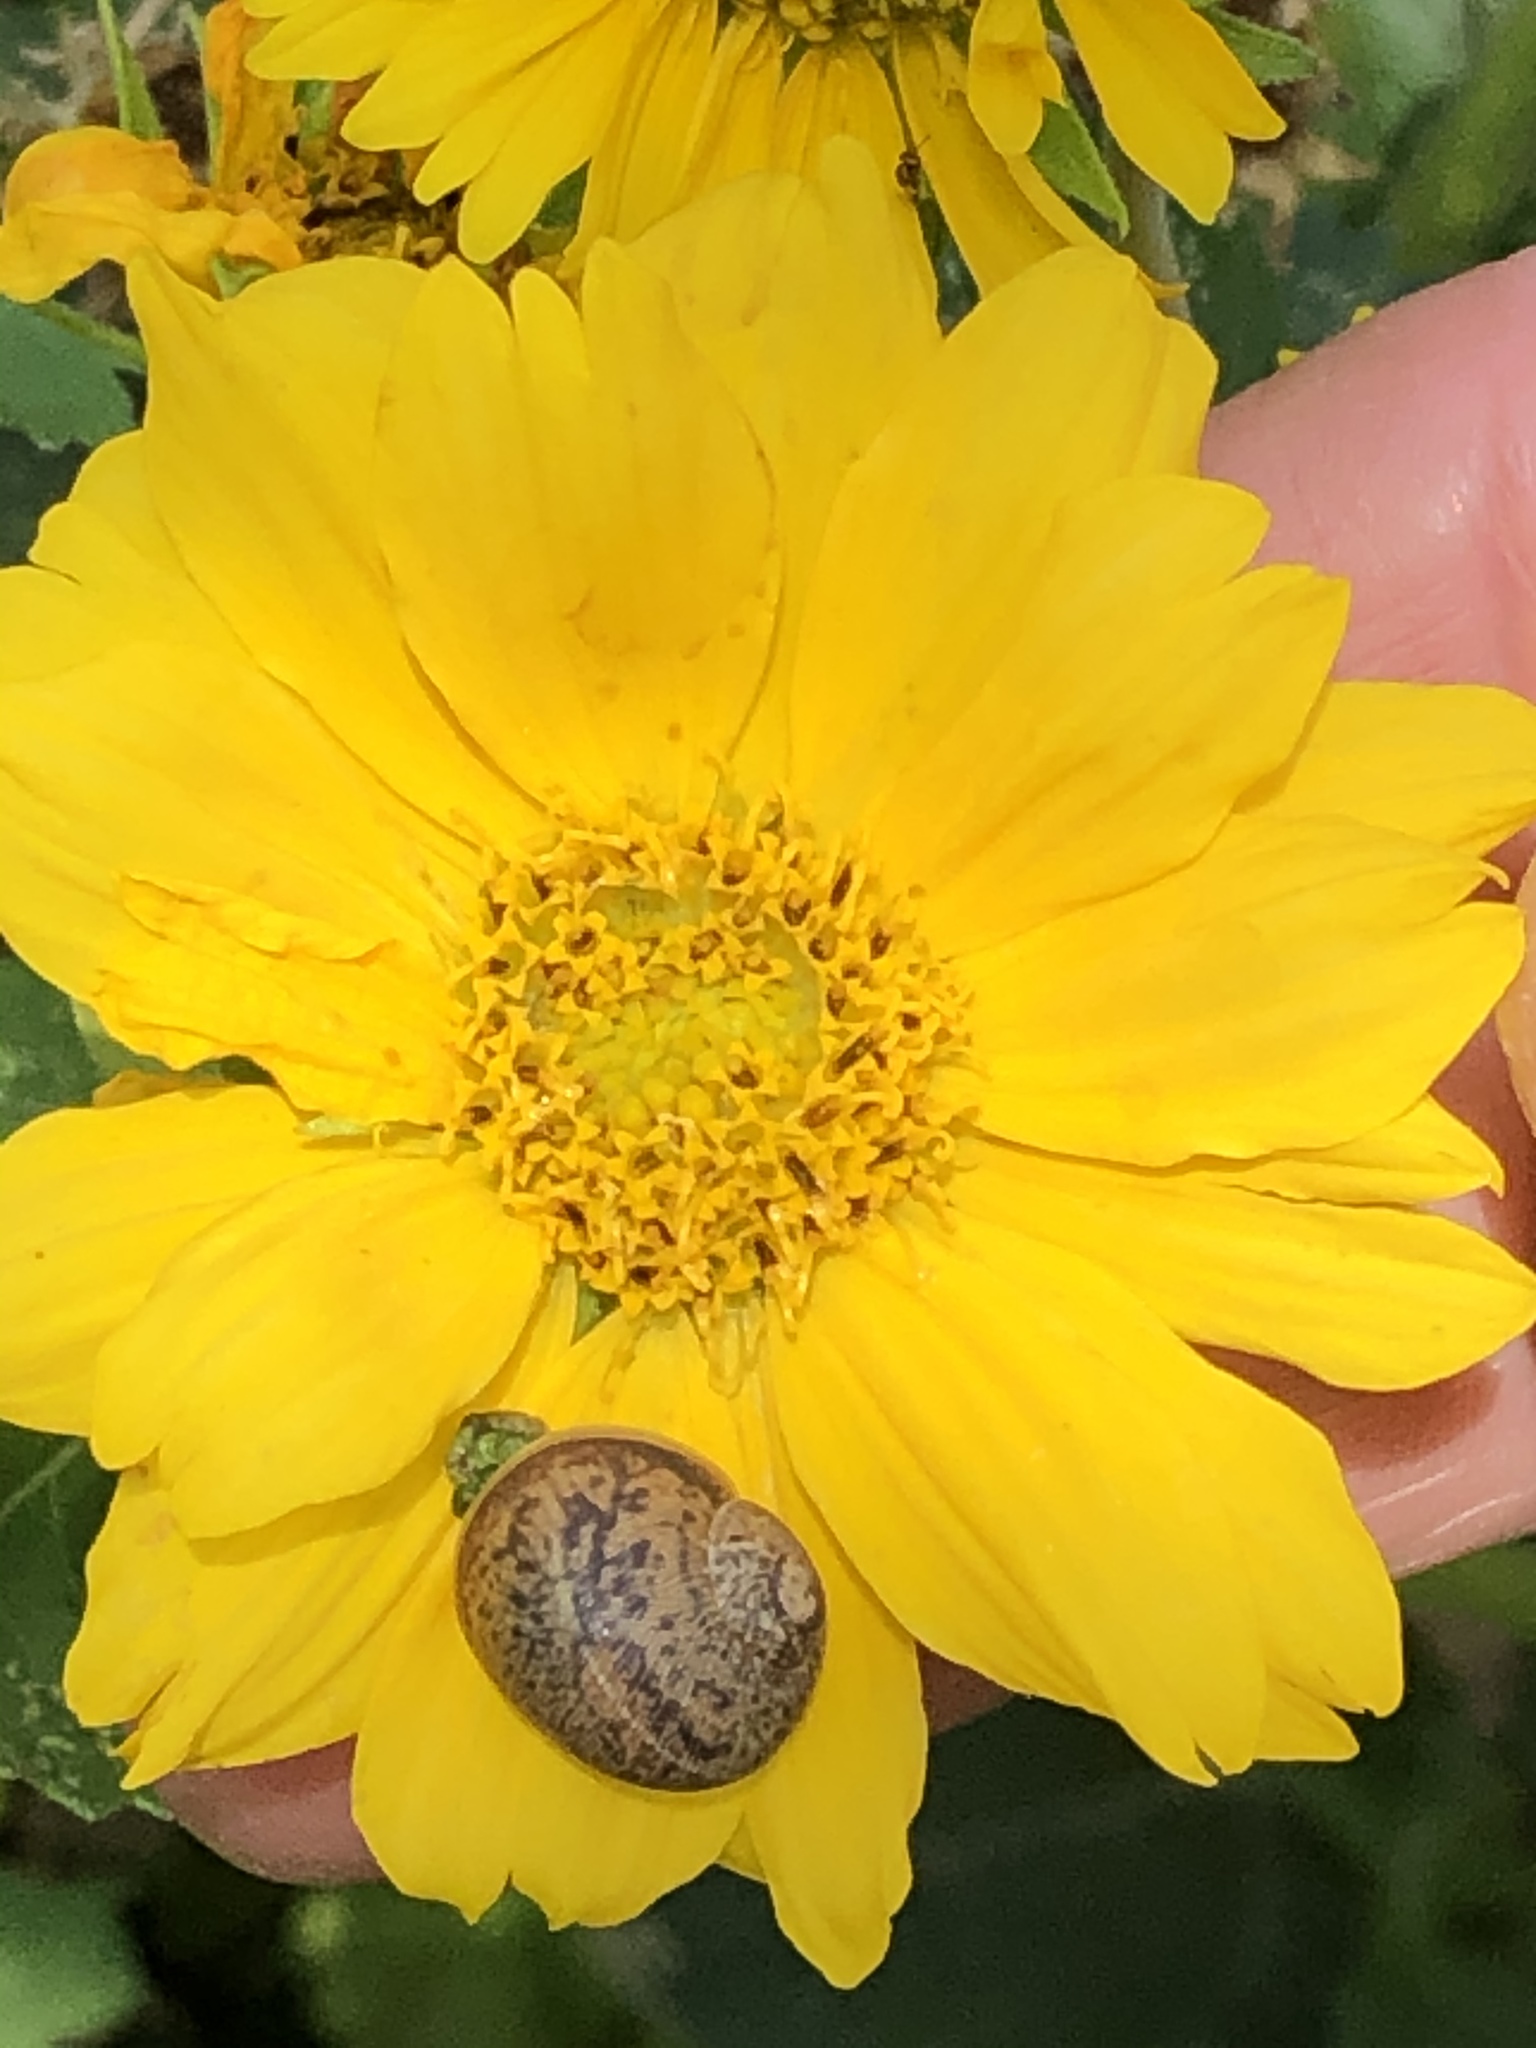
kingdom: Animalia
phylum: Mollusca
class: Gastropoda
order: Stylommatophora
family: Helicidae
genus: Cornu
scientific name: Cornu aspersum
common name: Brown garden snail
